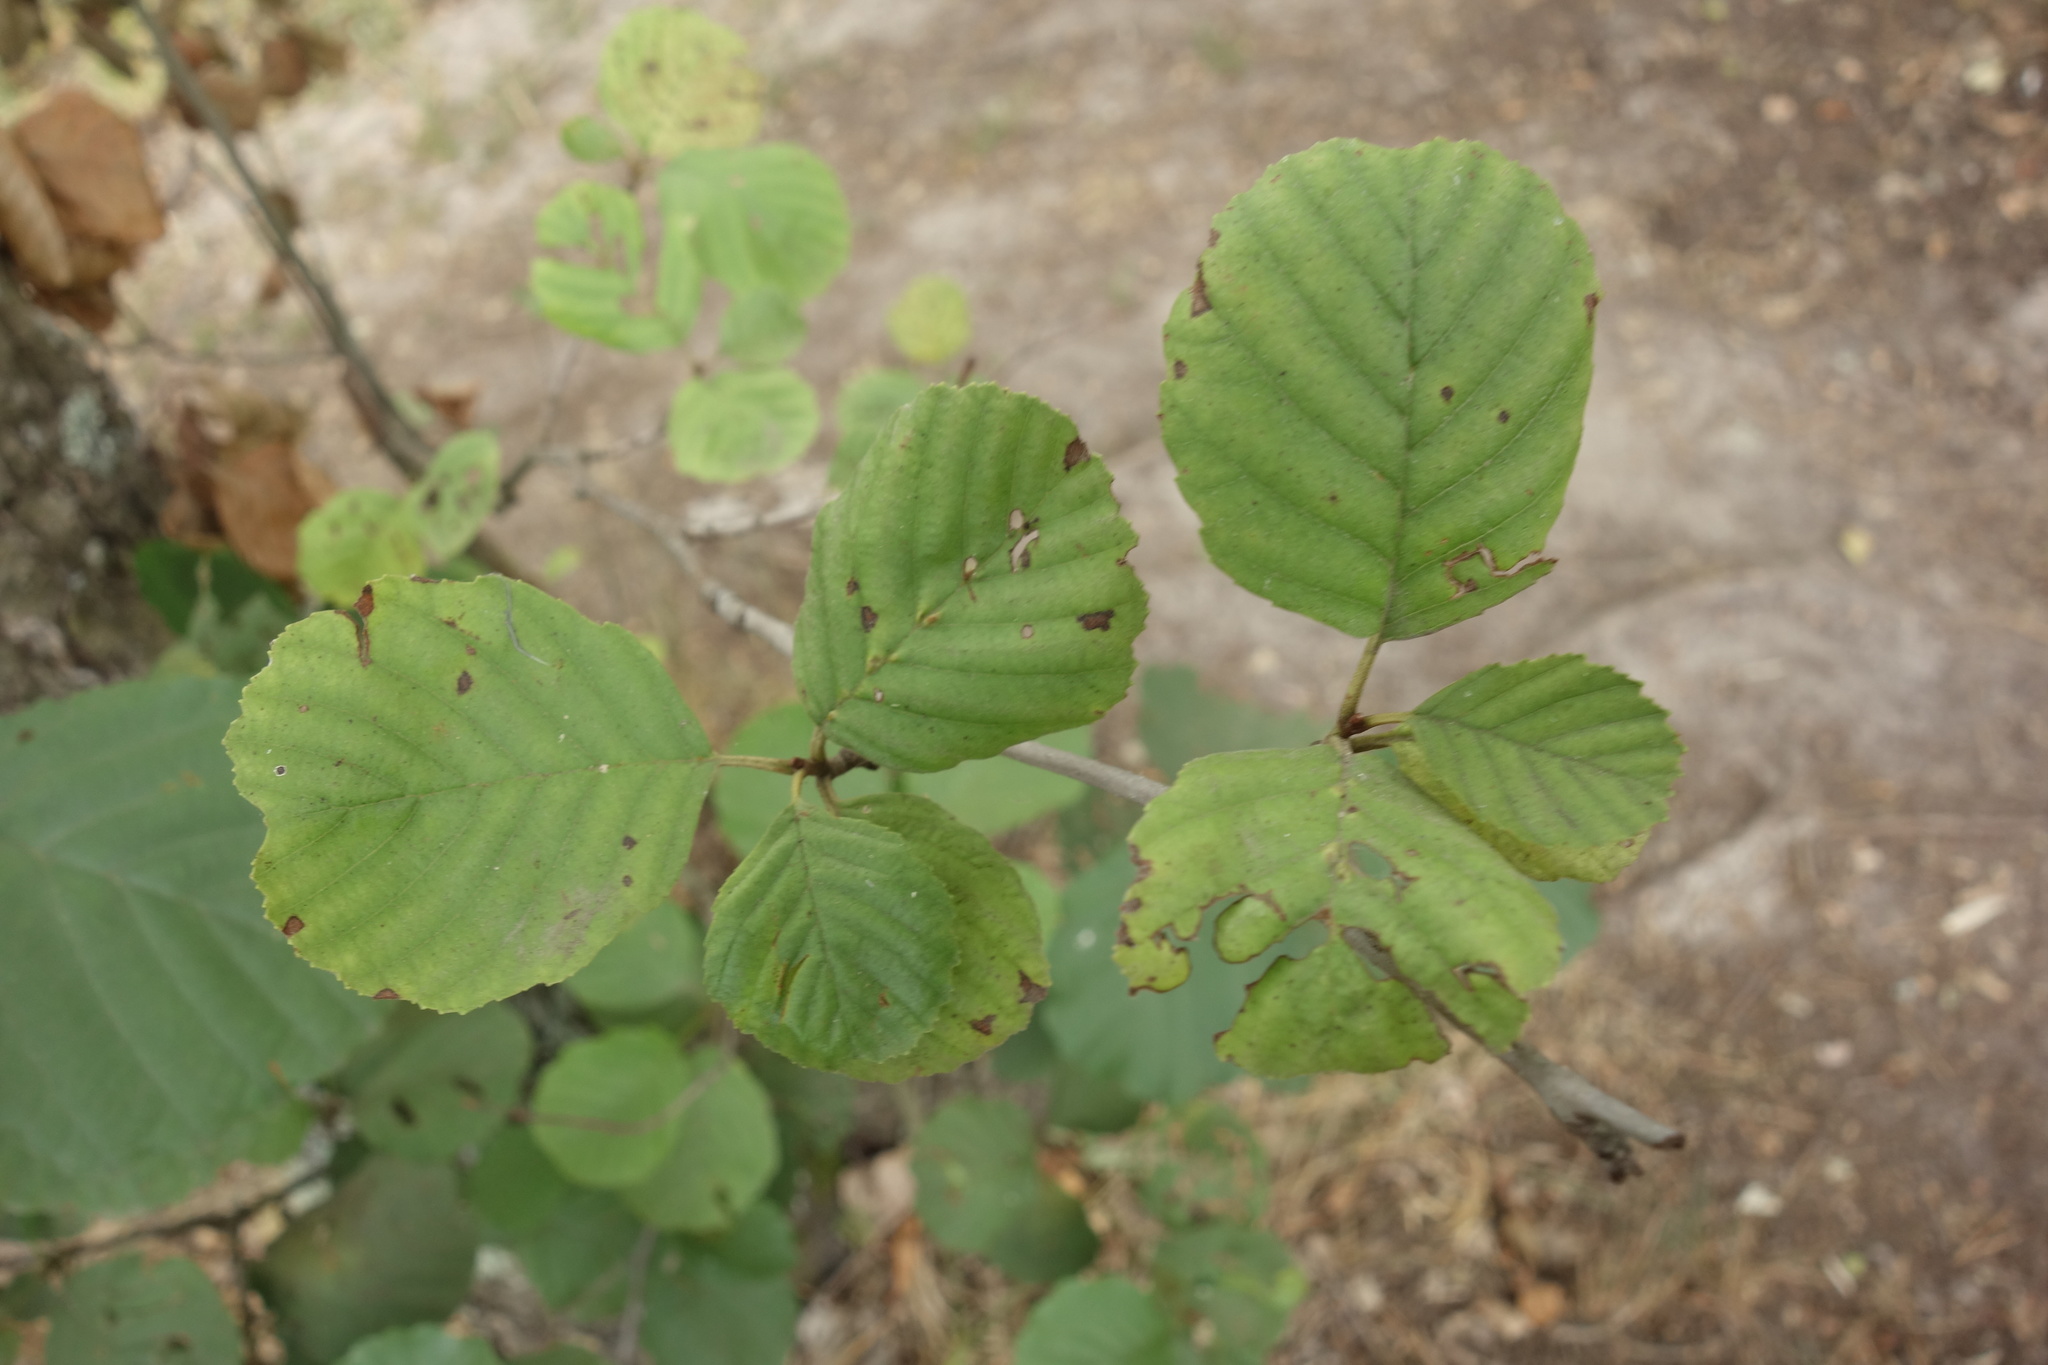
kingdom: Plantae
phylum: Tracheophyta
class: Magnoliopsida
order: Fagales
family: Betulaceae
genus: Alnus
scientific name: Alnus glutinosa
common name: Black alder
